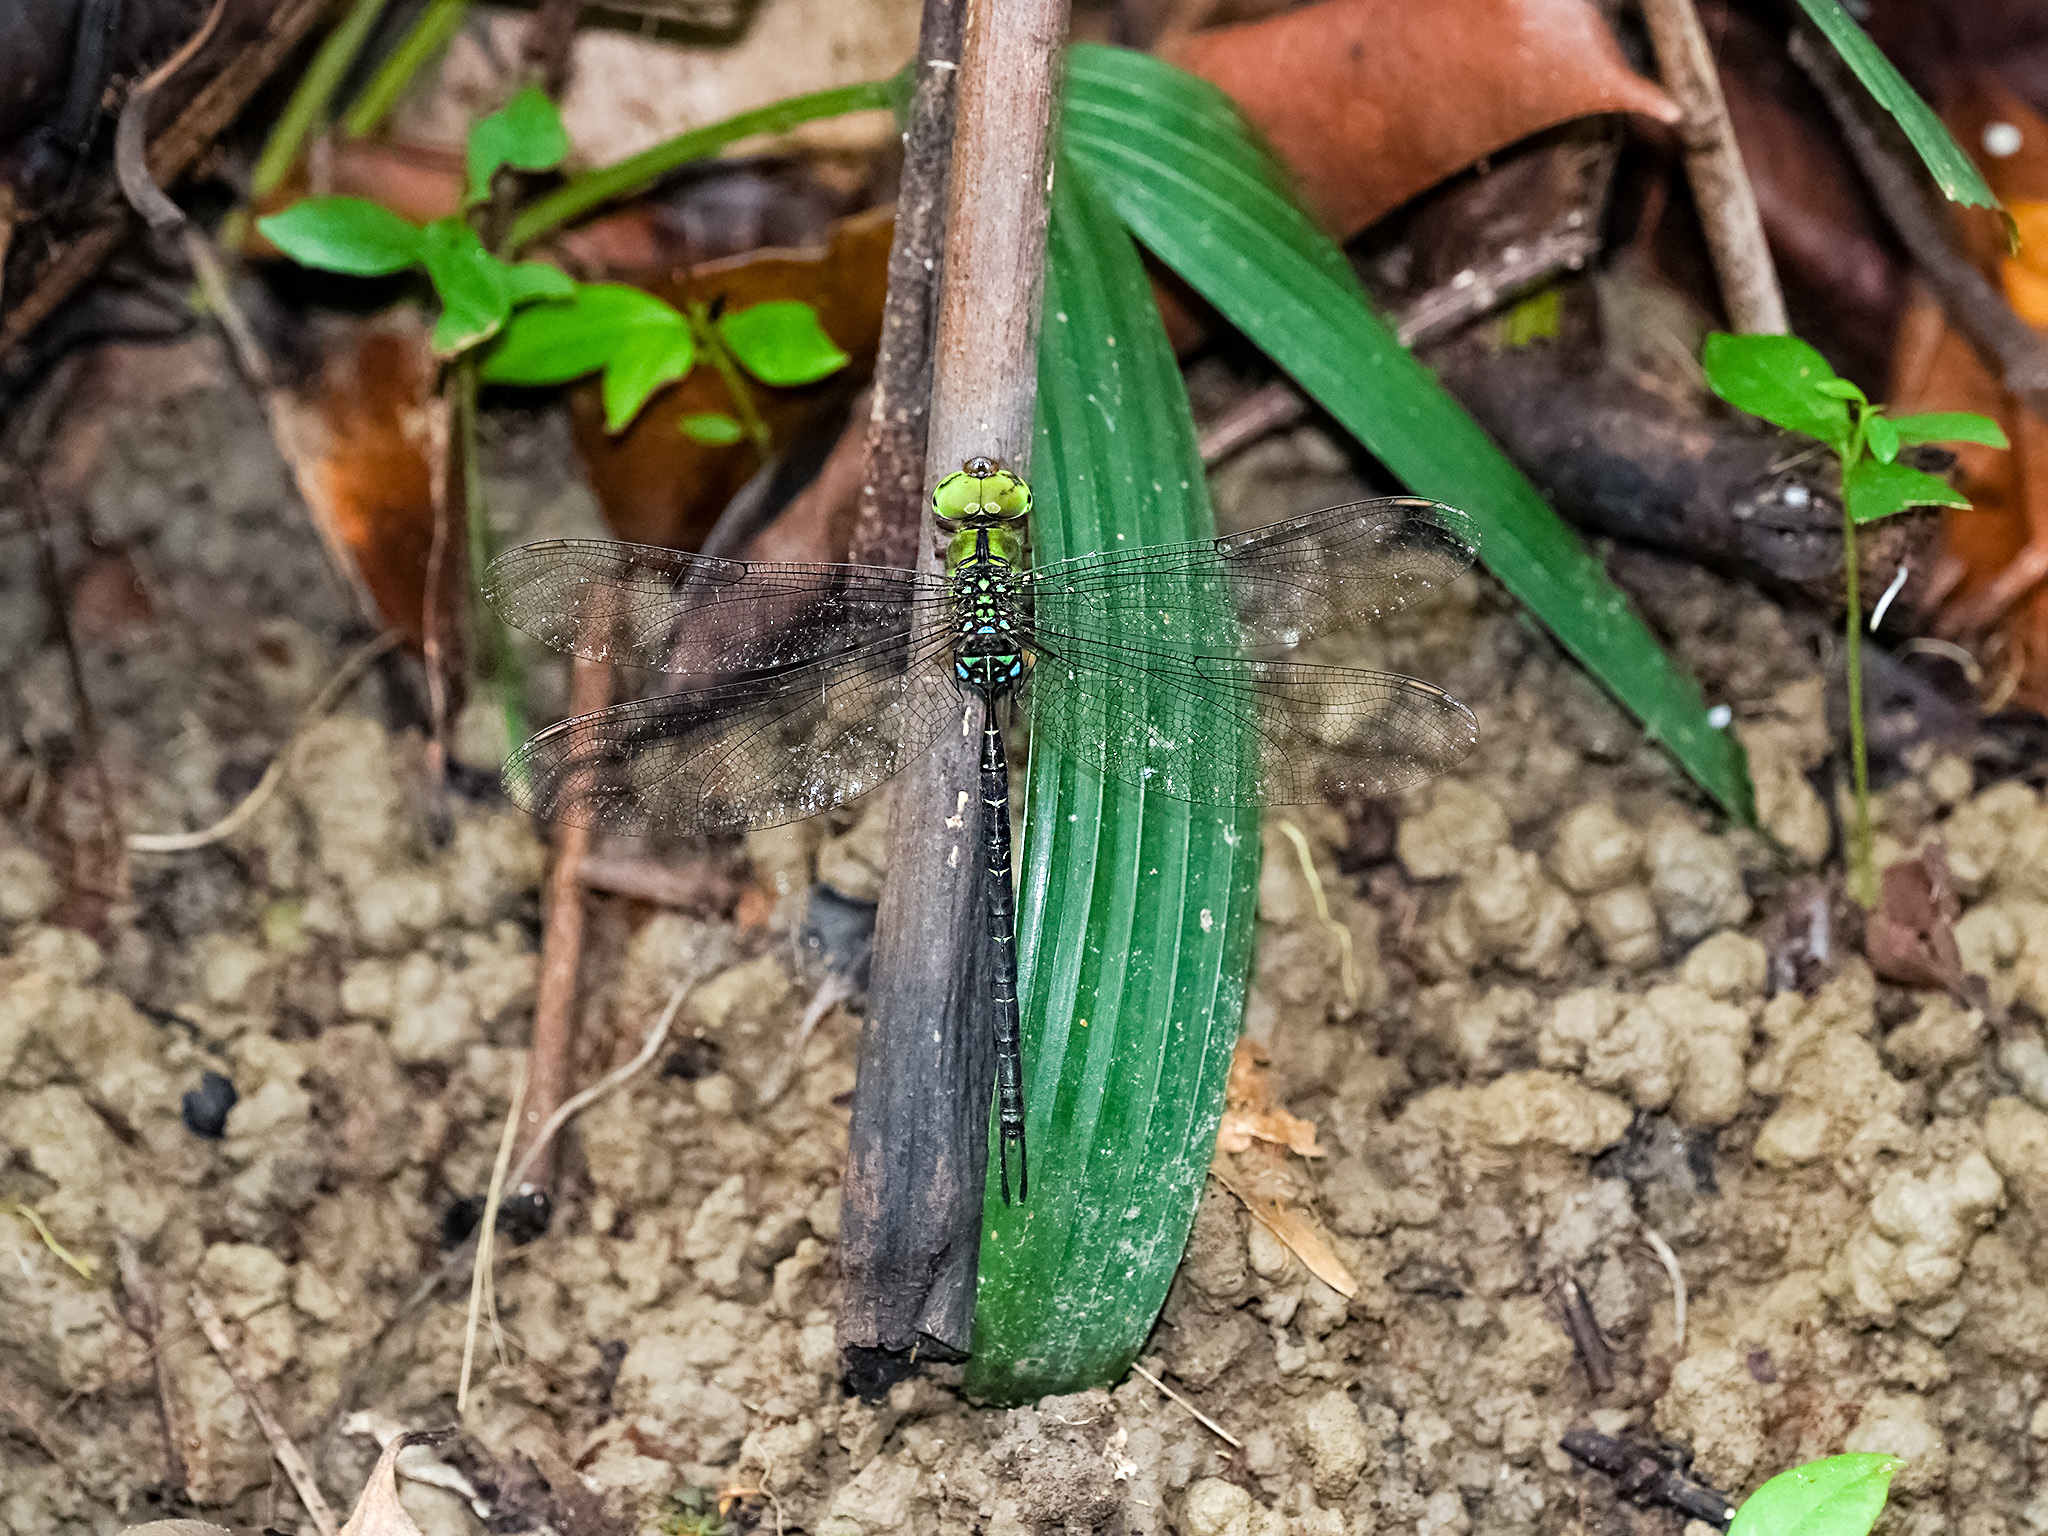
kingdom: Animalia
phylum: Arthropoda
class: Insecta
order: Odonata
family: Aeshnidae
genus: Gynacantha
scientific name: Gynacantha dohrni
